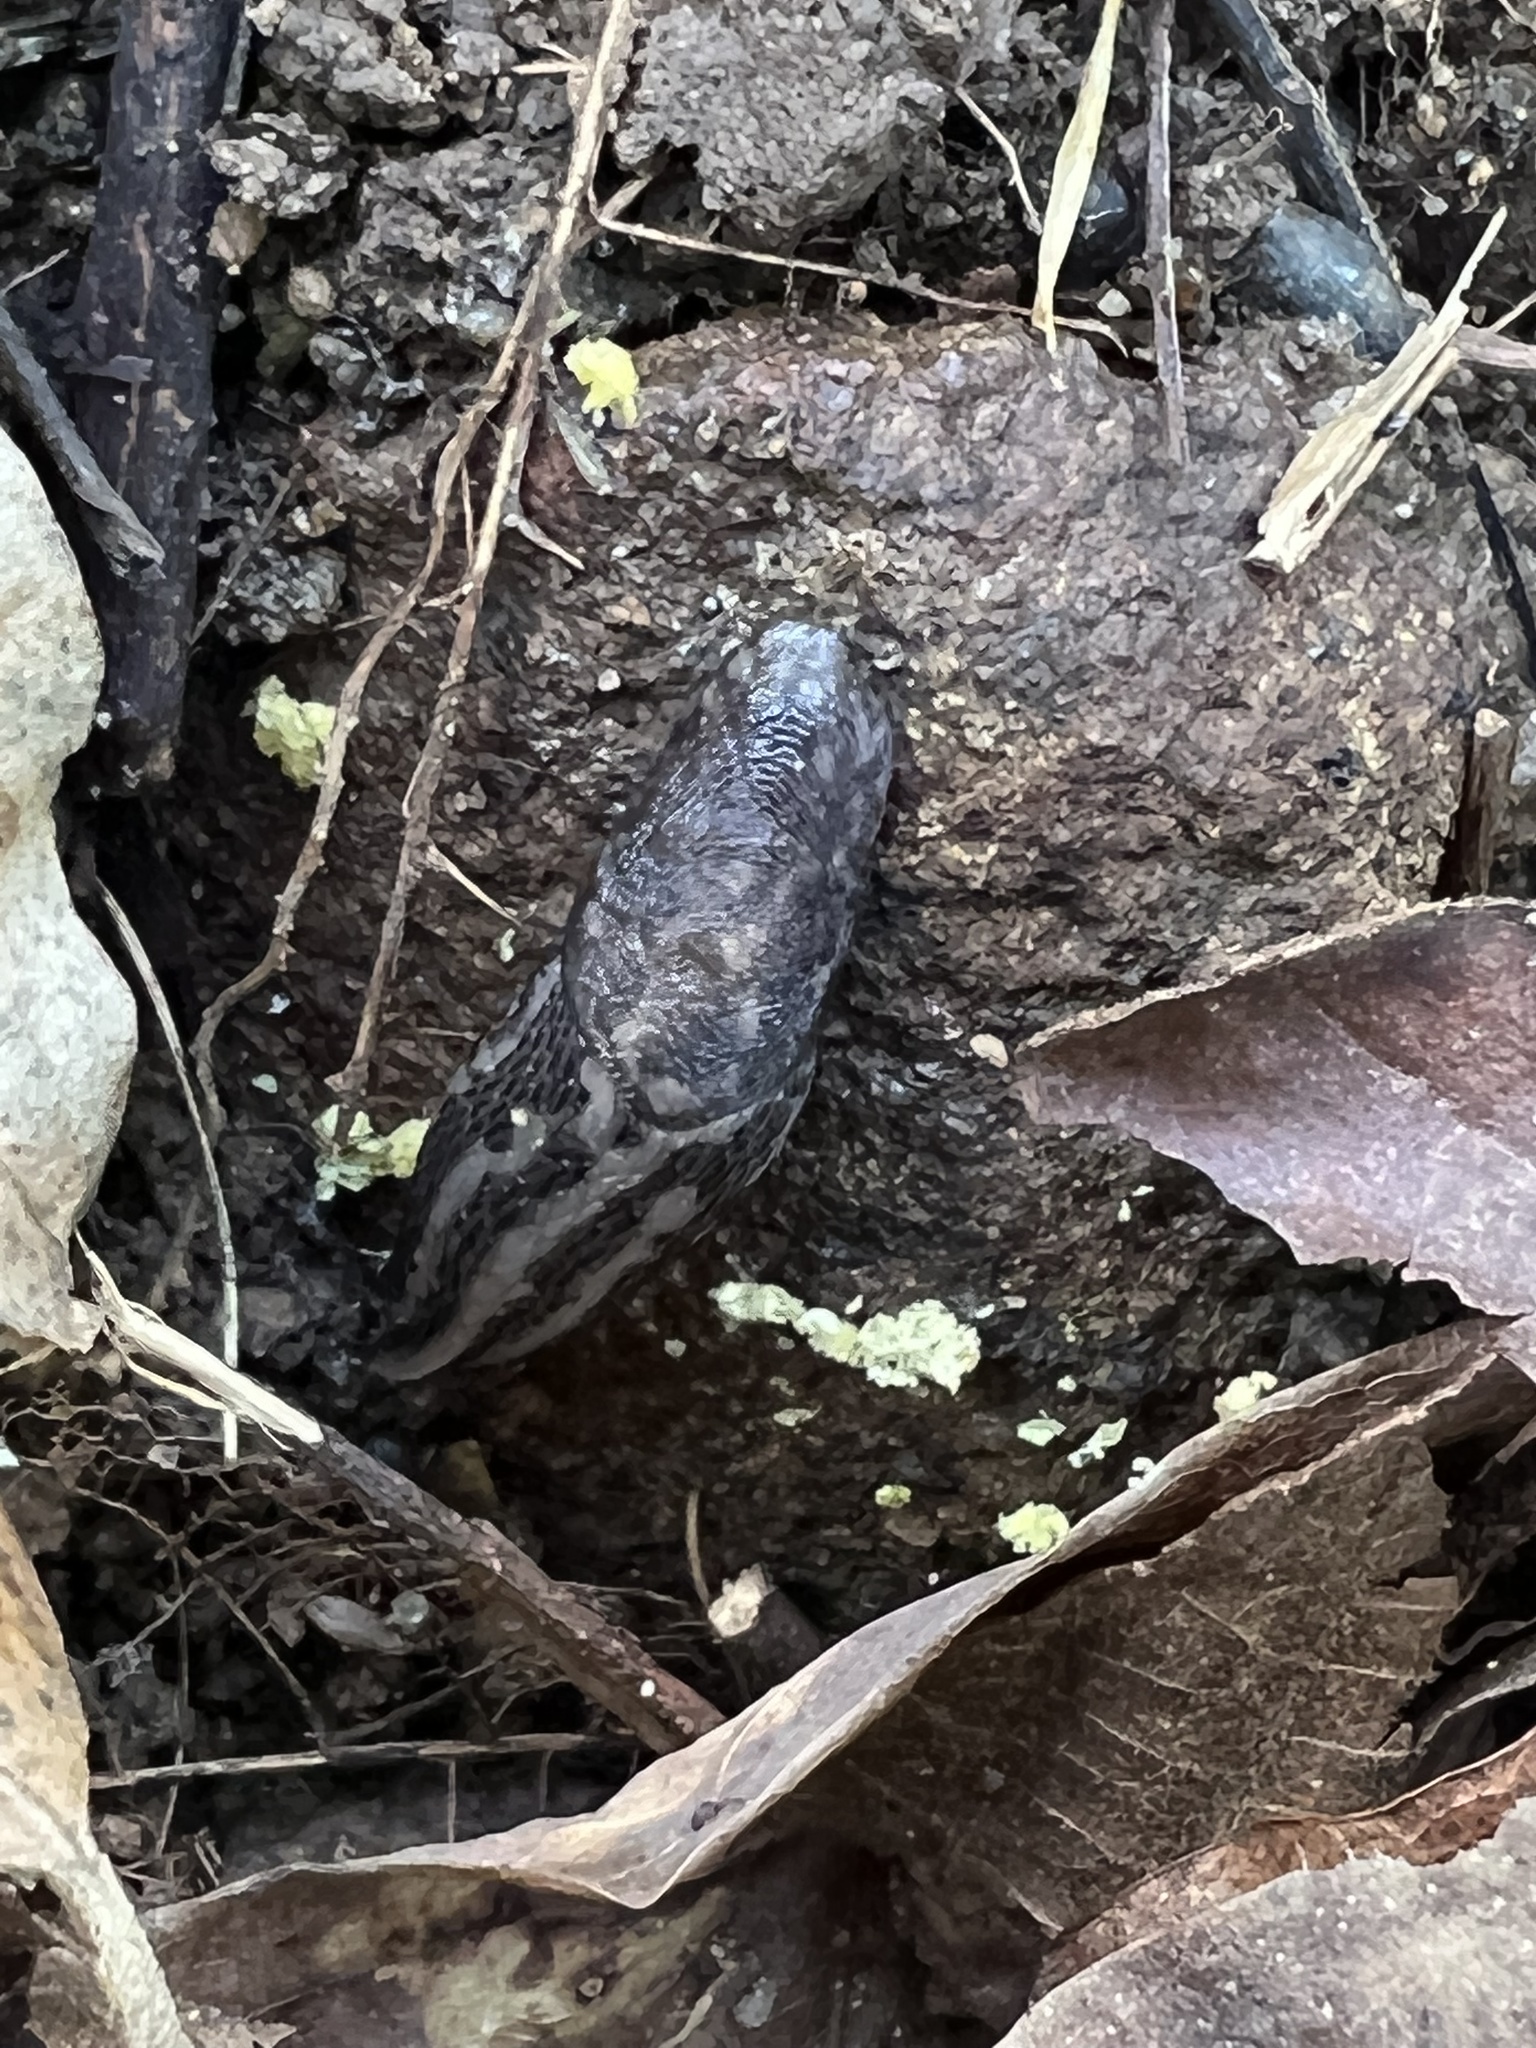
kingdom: Animalia
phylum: Mollusca
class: Gastropoda
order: Stylommatophora
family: Limacidae
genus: Limax
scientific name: Limax maximus
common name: Great grey slug
